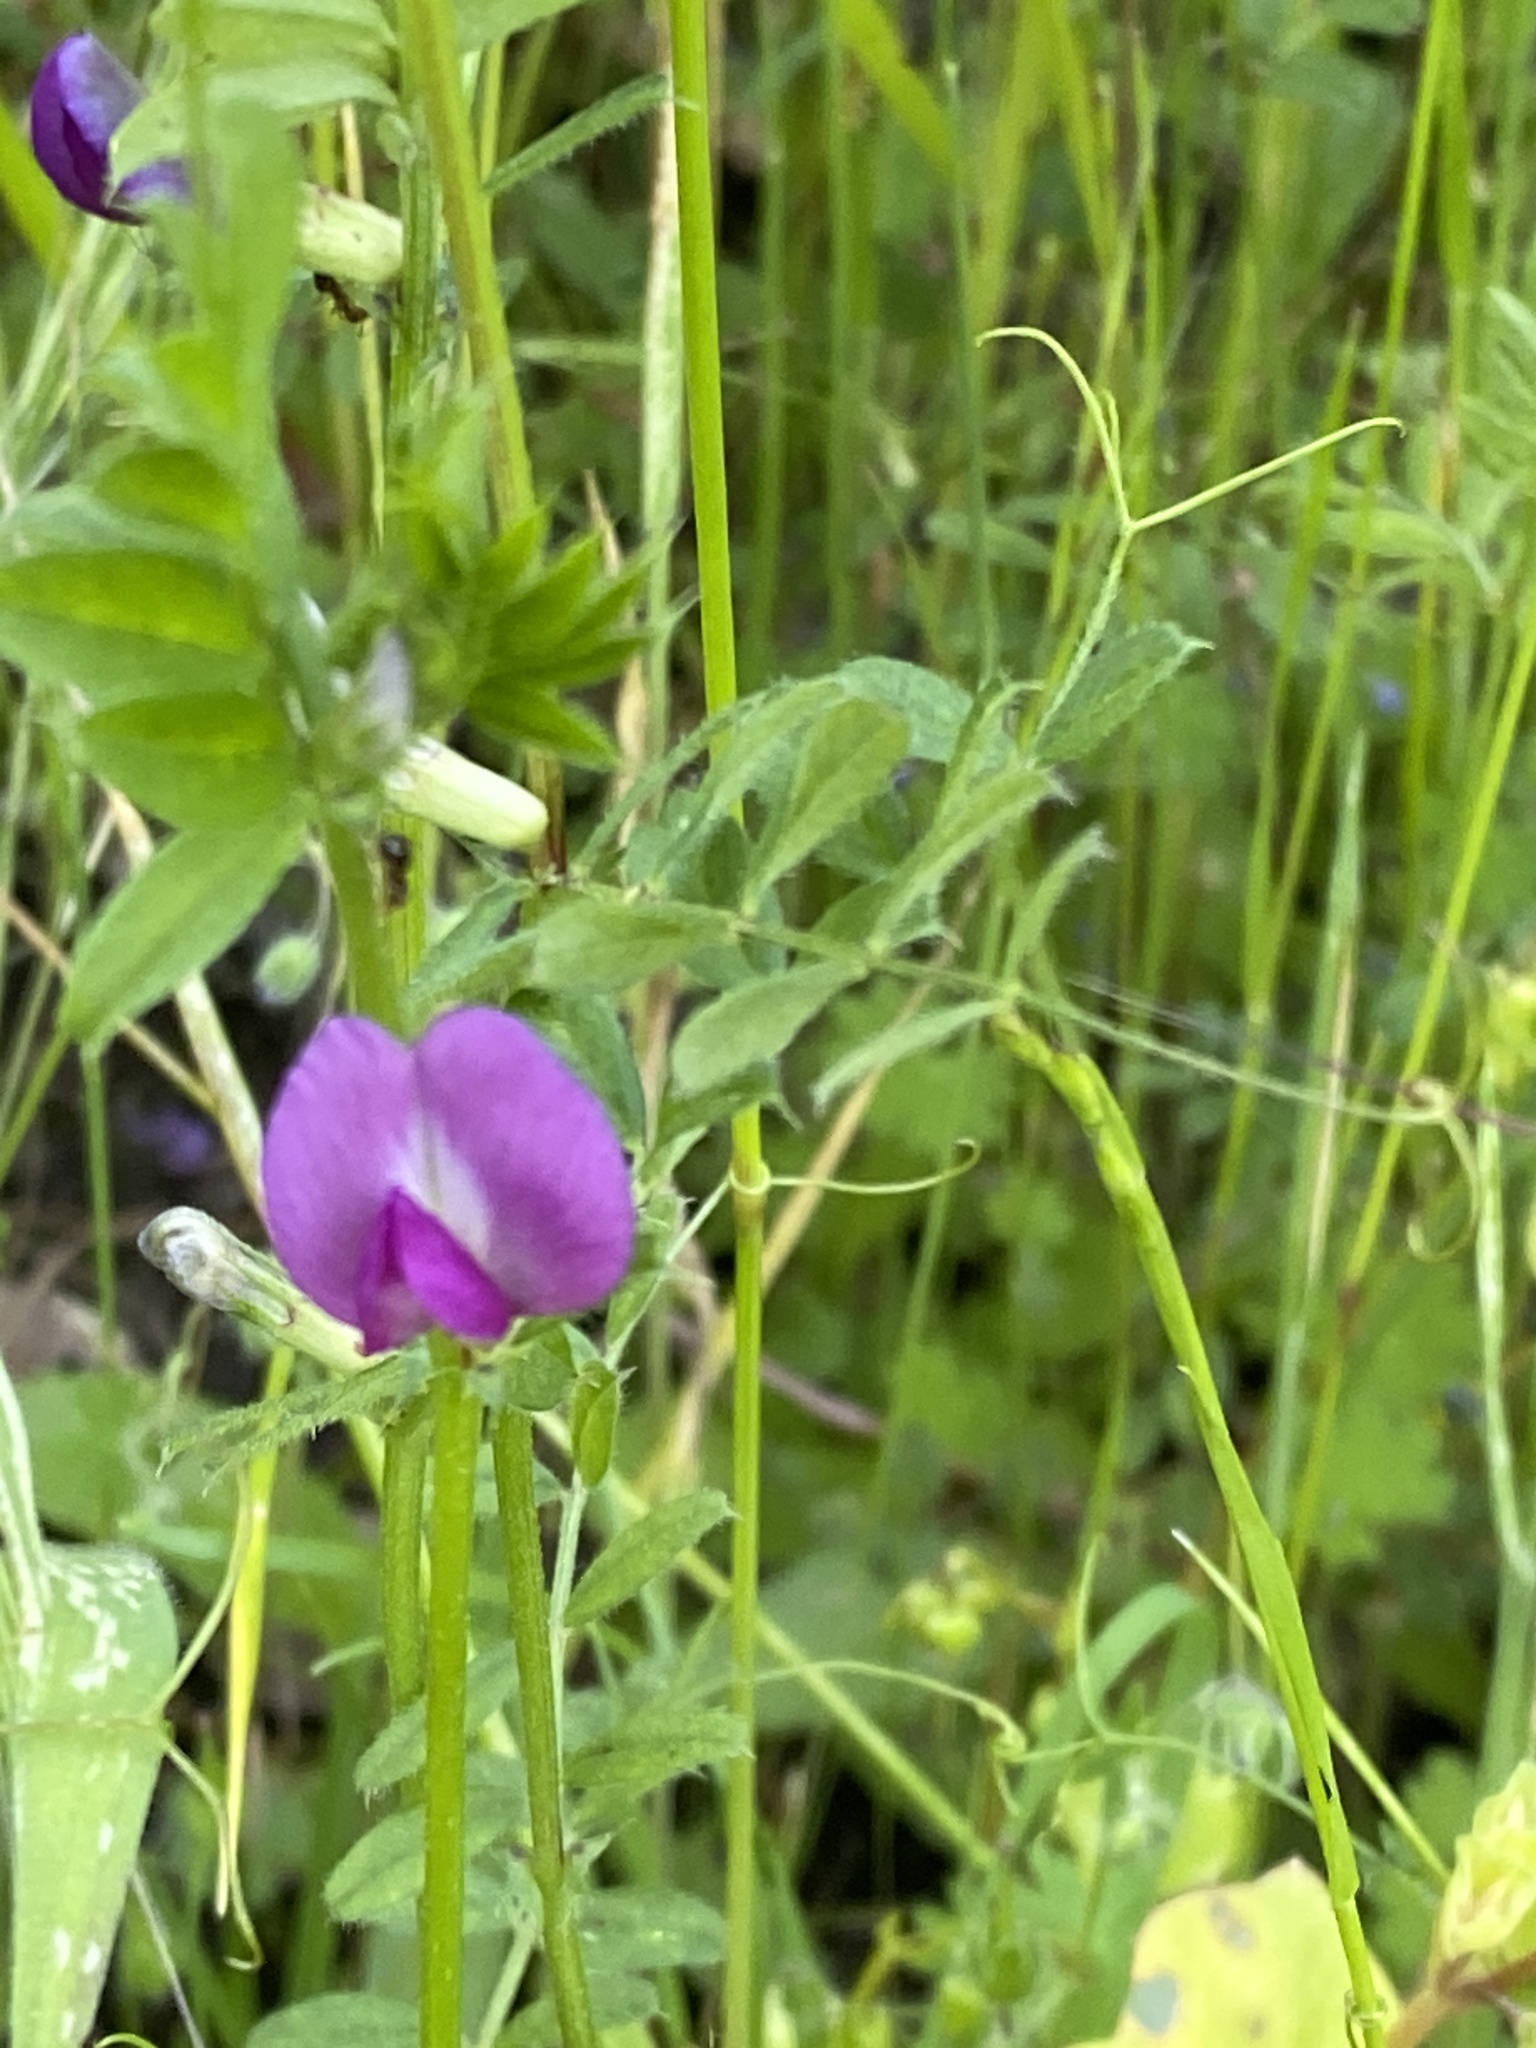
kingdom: Plantae
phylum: Tracheophyta
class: Magnoliopsida
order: Fabales
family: Fabaceae
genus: Vicia
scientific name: Vicia sativa
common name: Garden vetch
